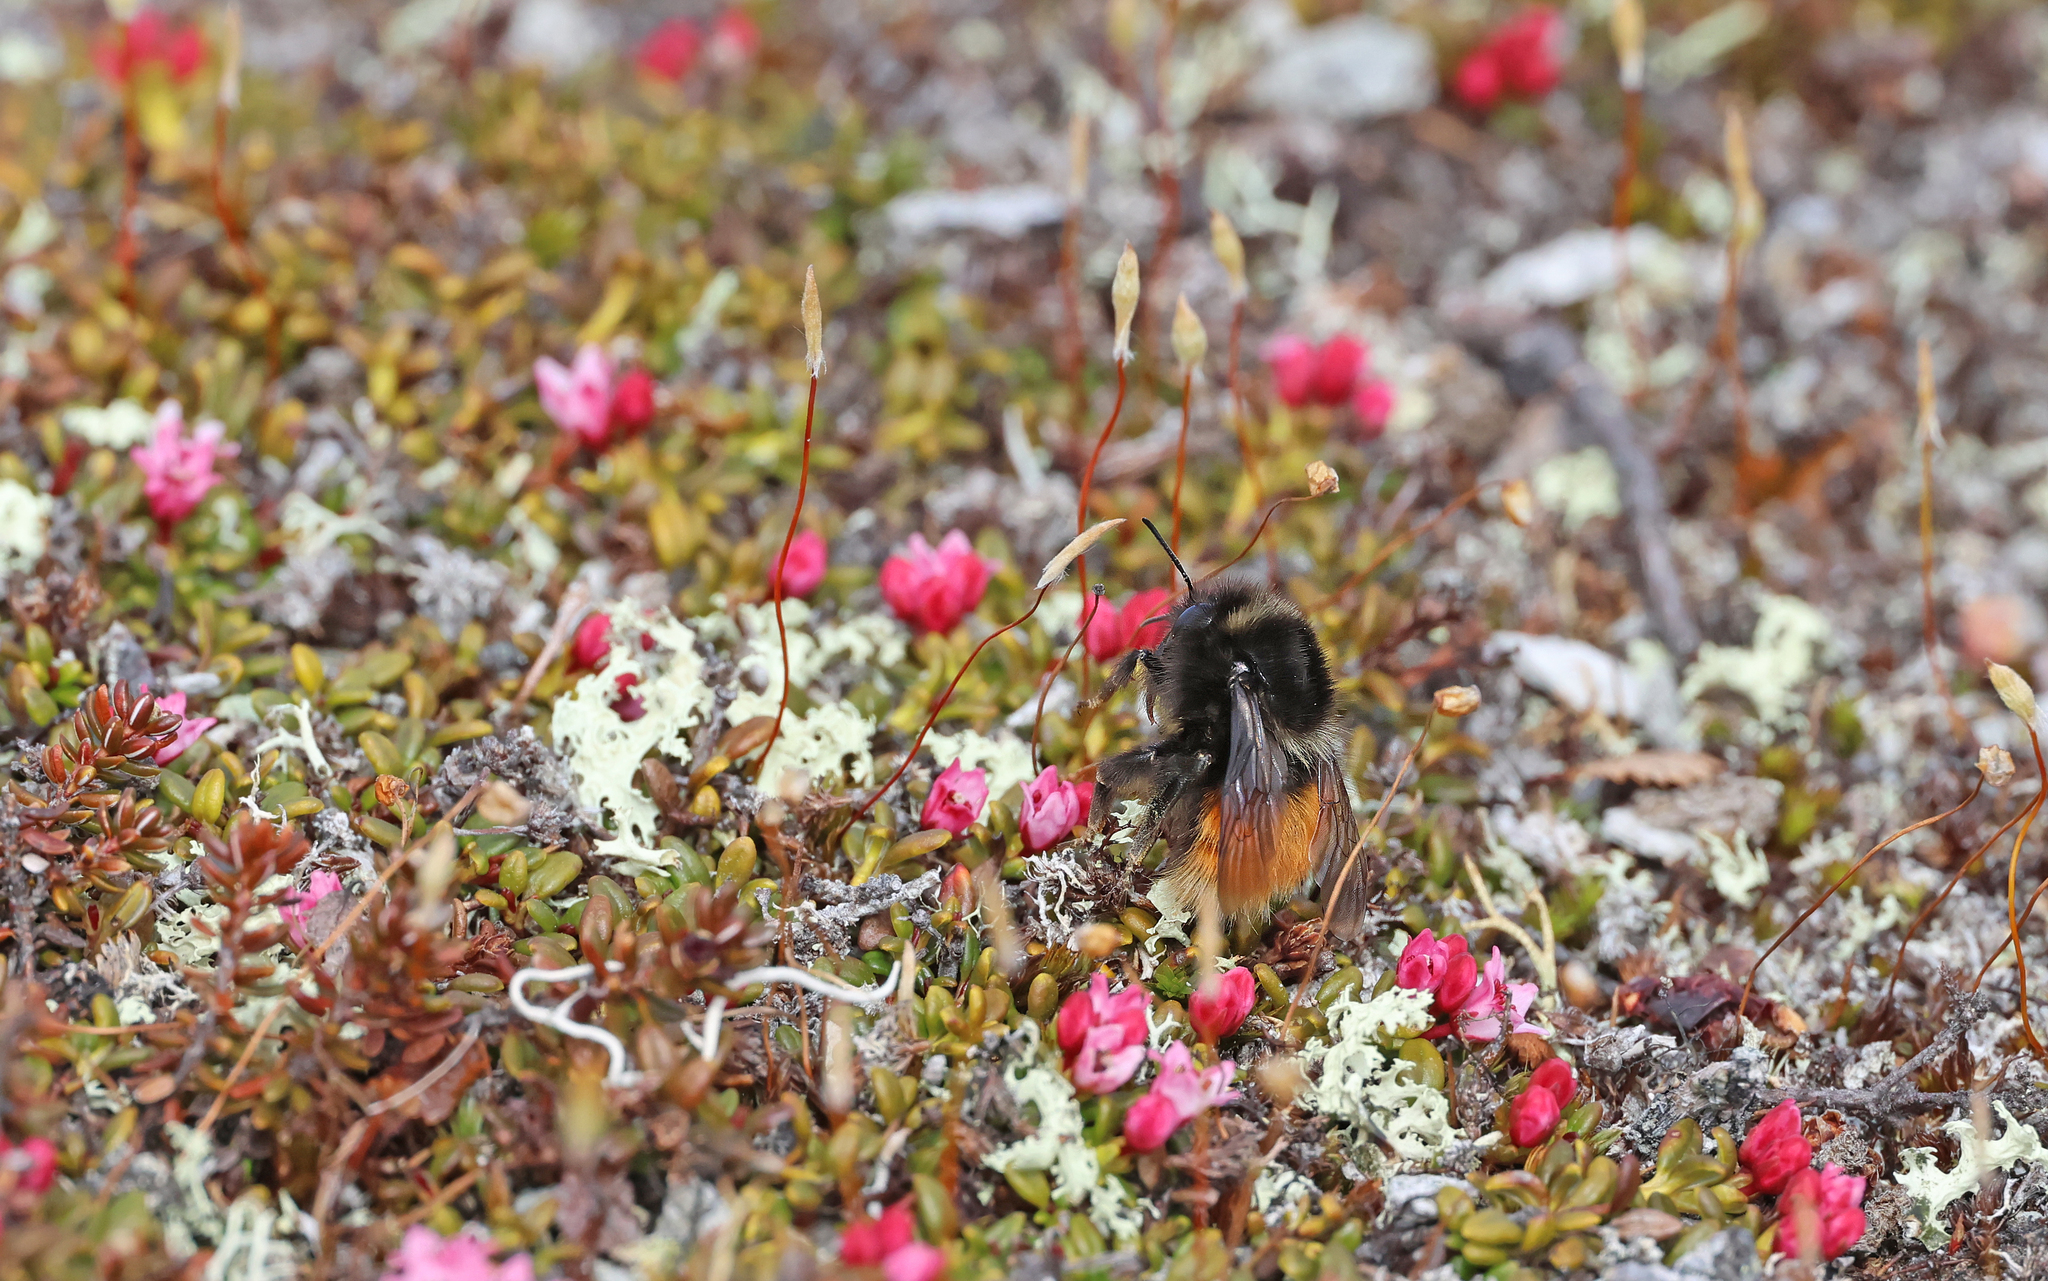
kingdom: Animalia
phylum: Arthropoda
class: Insecta
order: Hymenoptera
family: Apidae
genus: Bombus
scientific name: Bombus lapponicus
